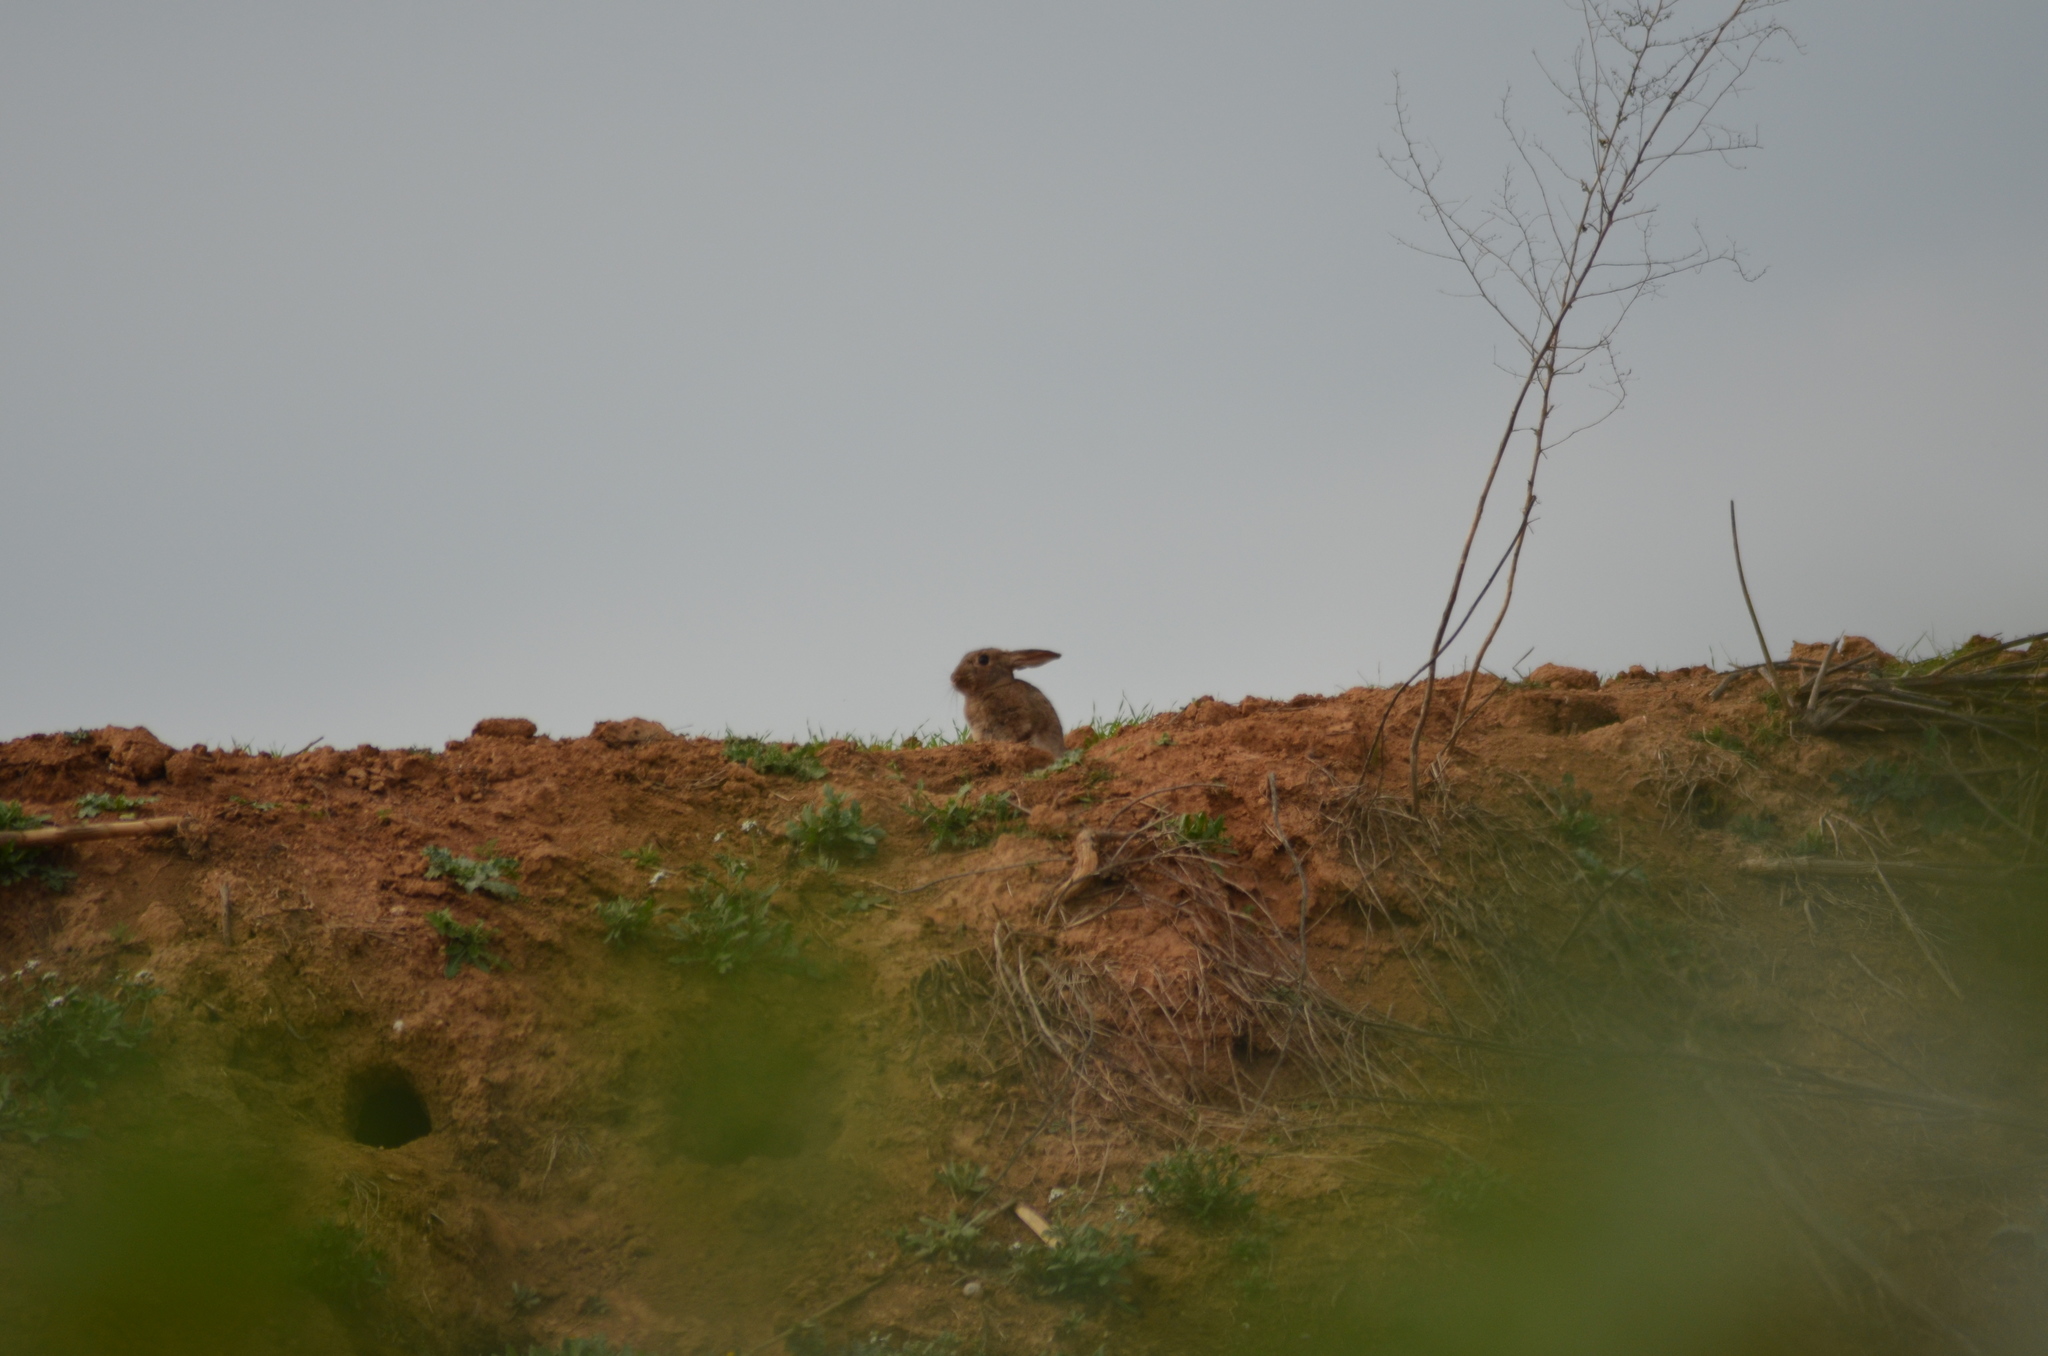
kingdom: Animalia
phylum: Chordata
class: Mammalia
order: Lagomorpha
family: Leporidae
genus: Oryctolagus
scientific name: Oryctolagus cuniculus
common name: European rabbit
